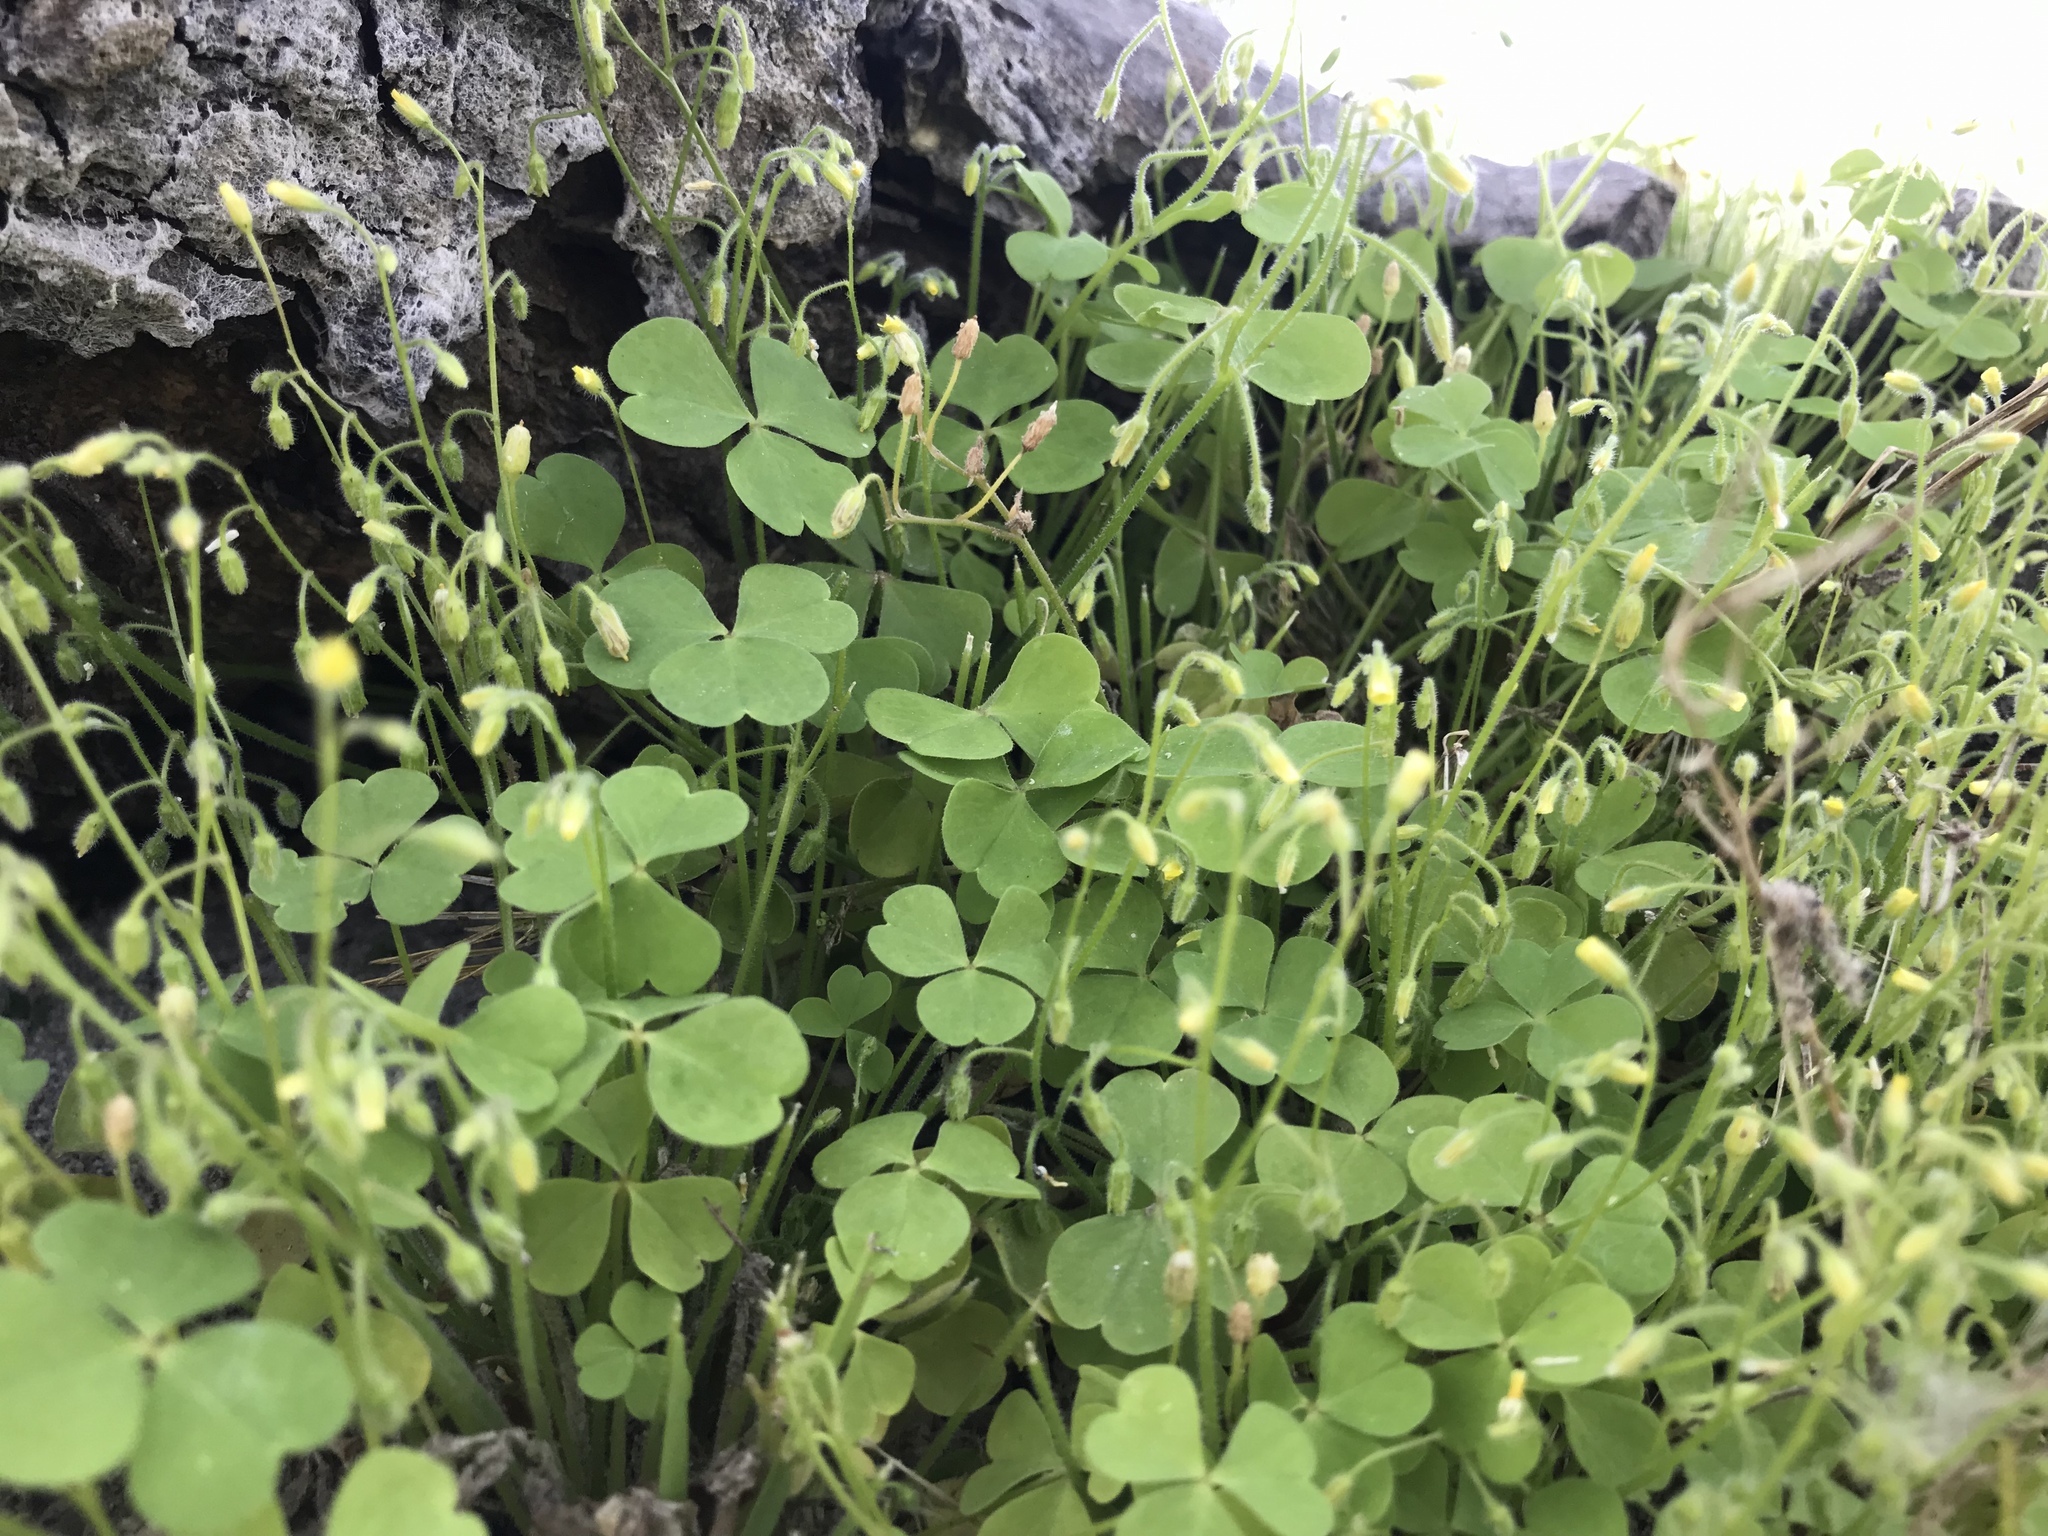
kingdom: Plantae
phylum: Tracheophyta
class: Magnoliopsida
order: Oxalidales
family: Oxalidaceae
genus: Oxalis
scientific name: Oxalis laxa
